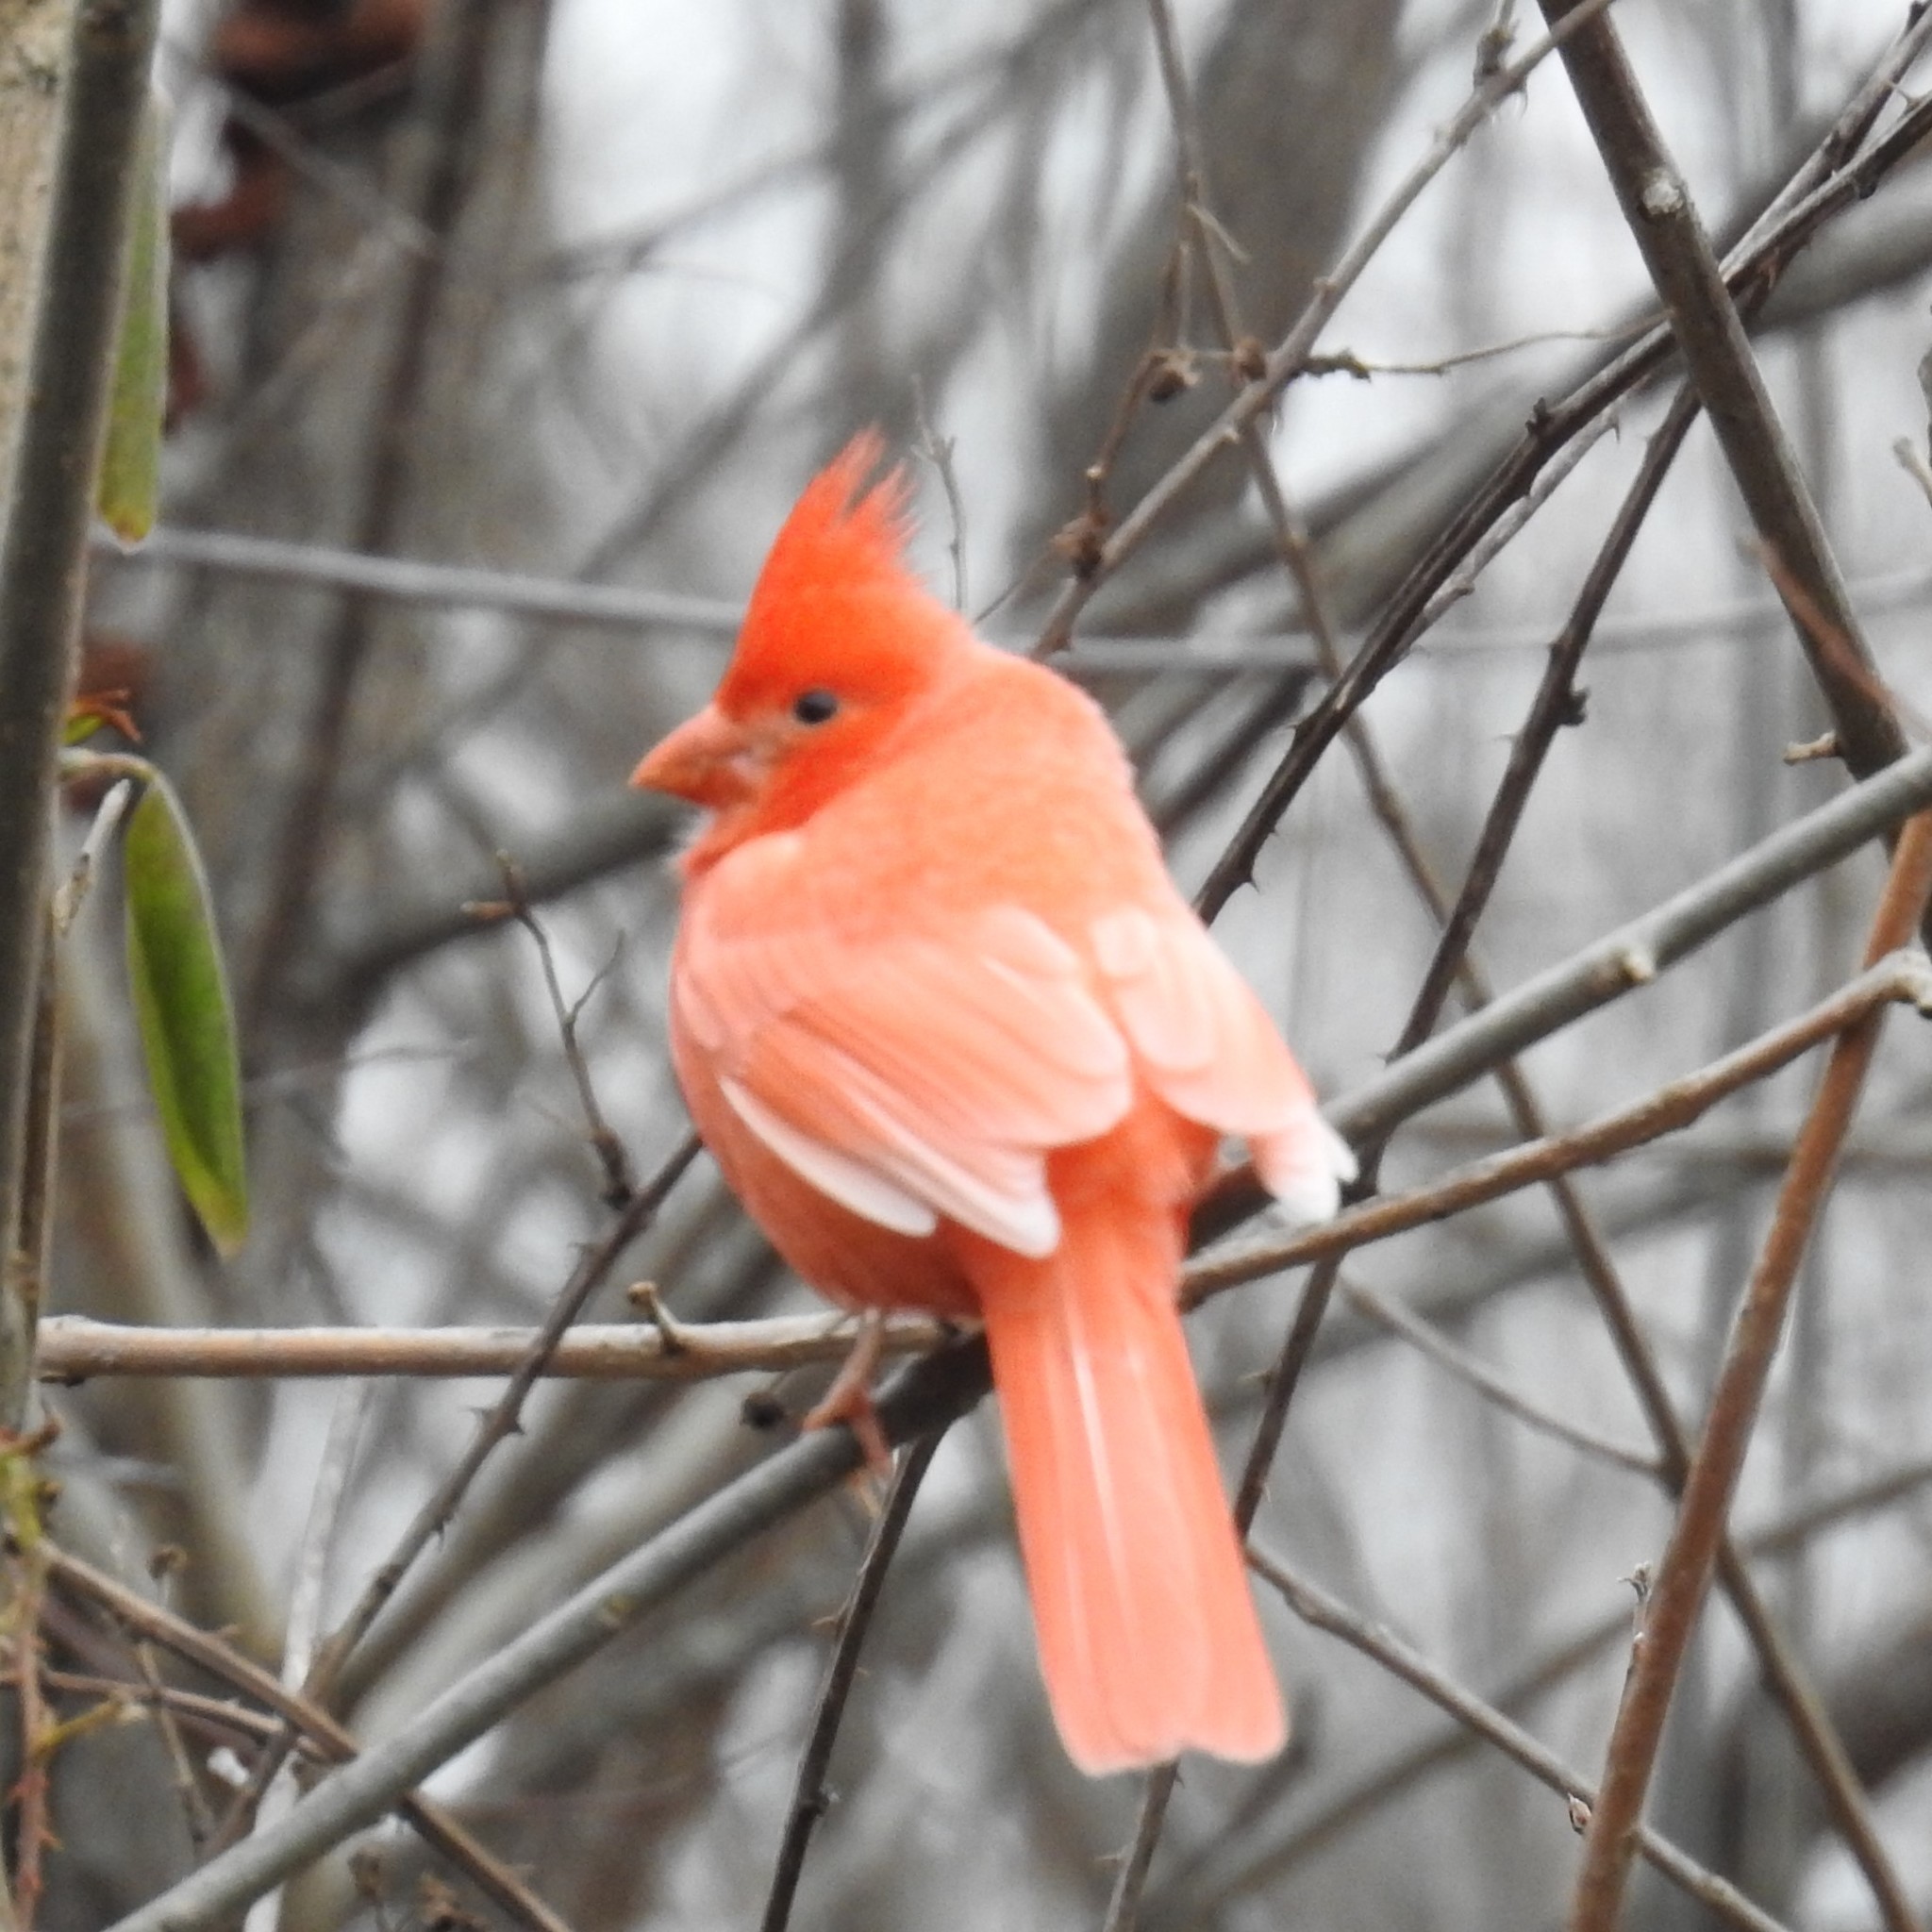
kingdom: Animalia
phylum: Chordata
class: Aves
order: Passeriformes
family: Cardinalidae
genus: Cardinalis
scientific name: Cardinalis cardinalis
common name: Northern cardinal
